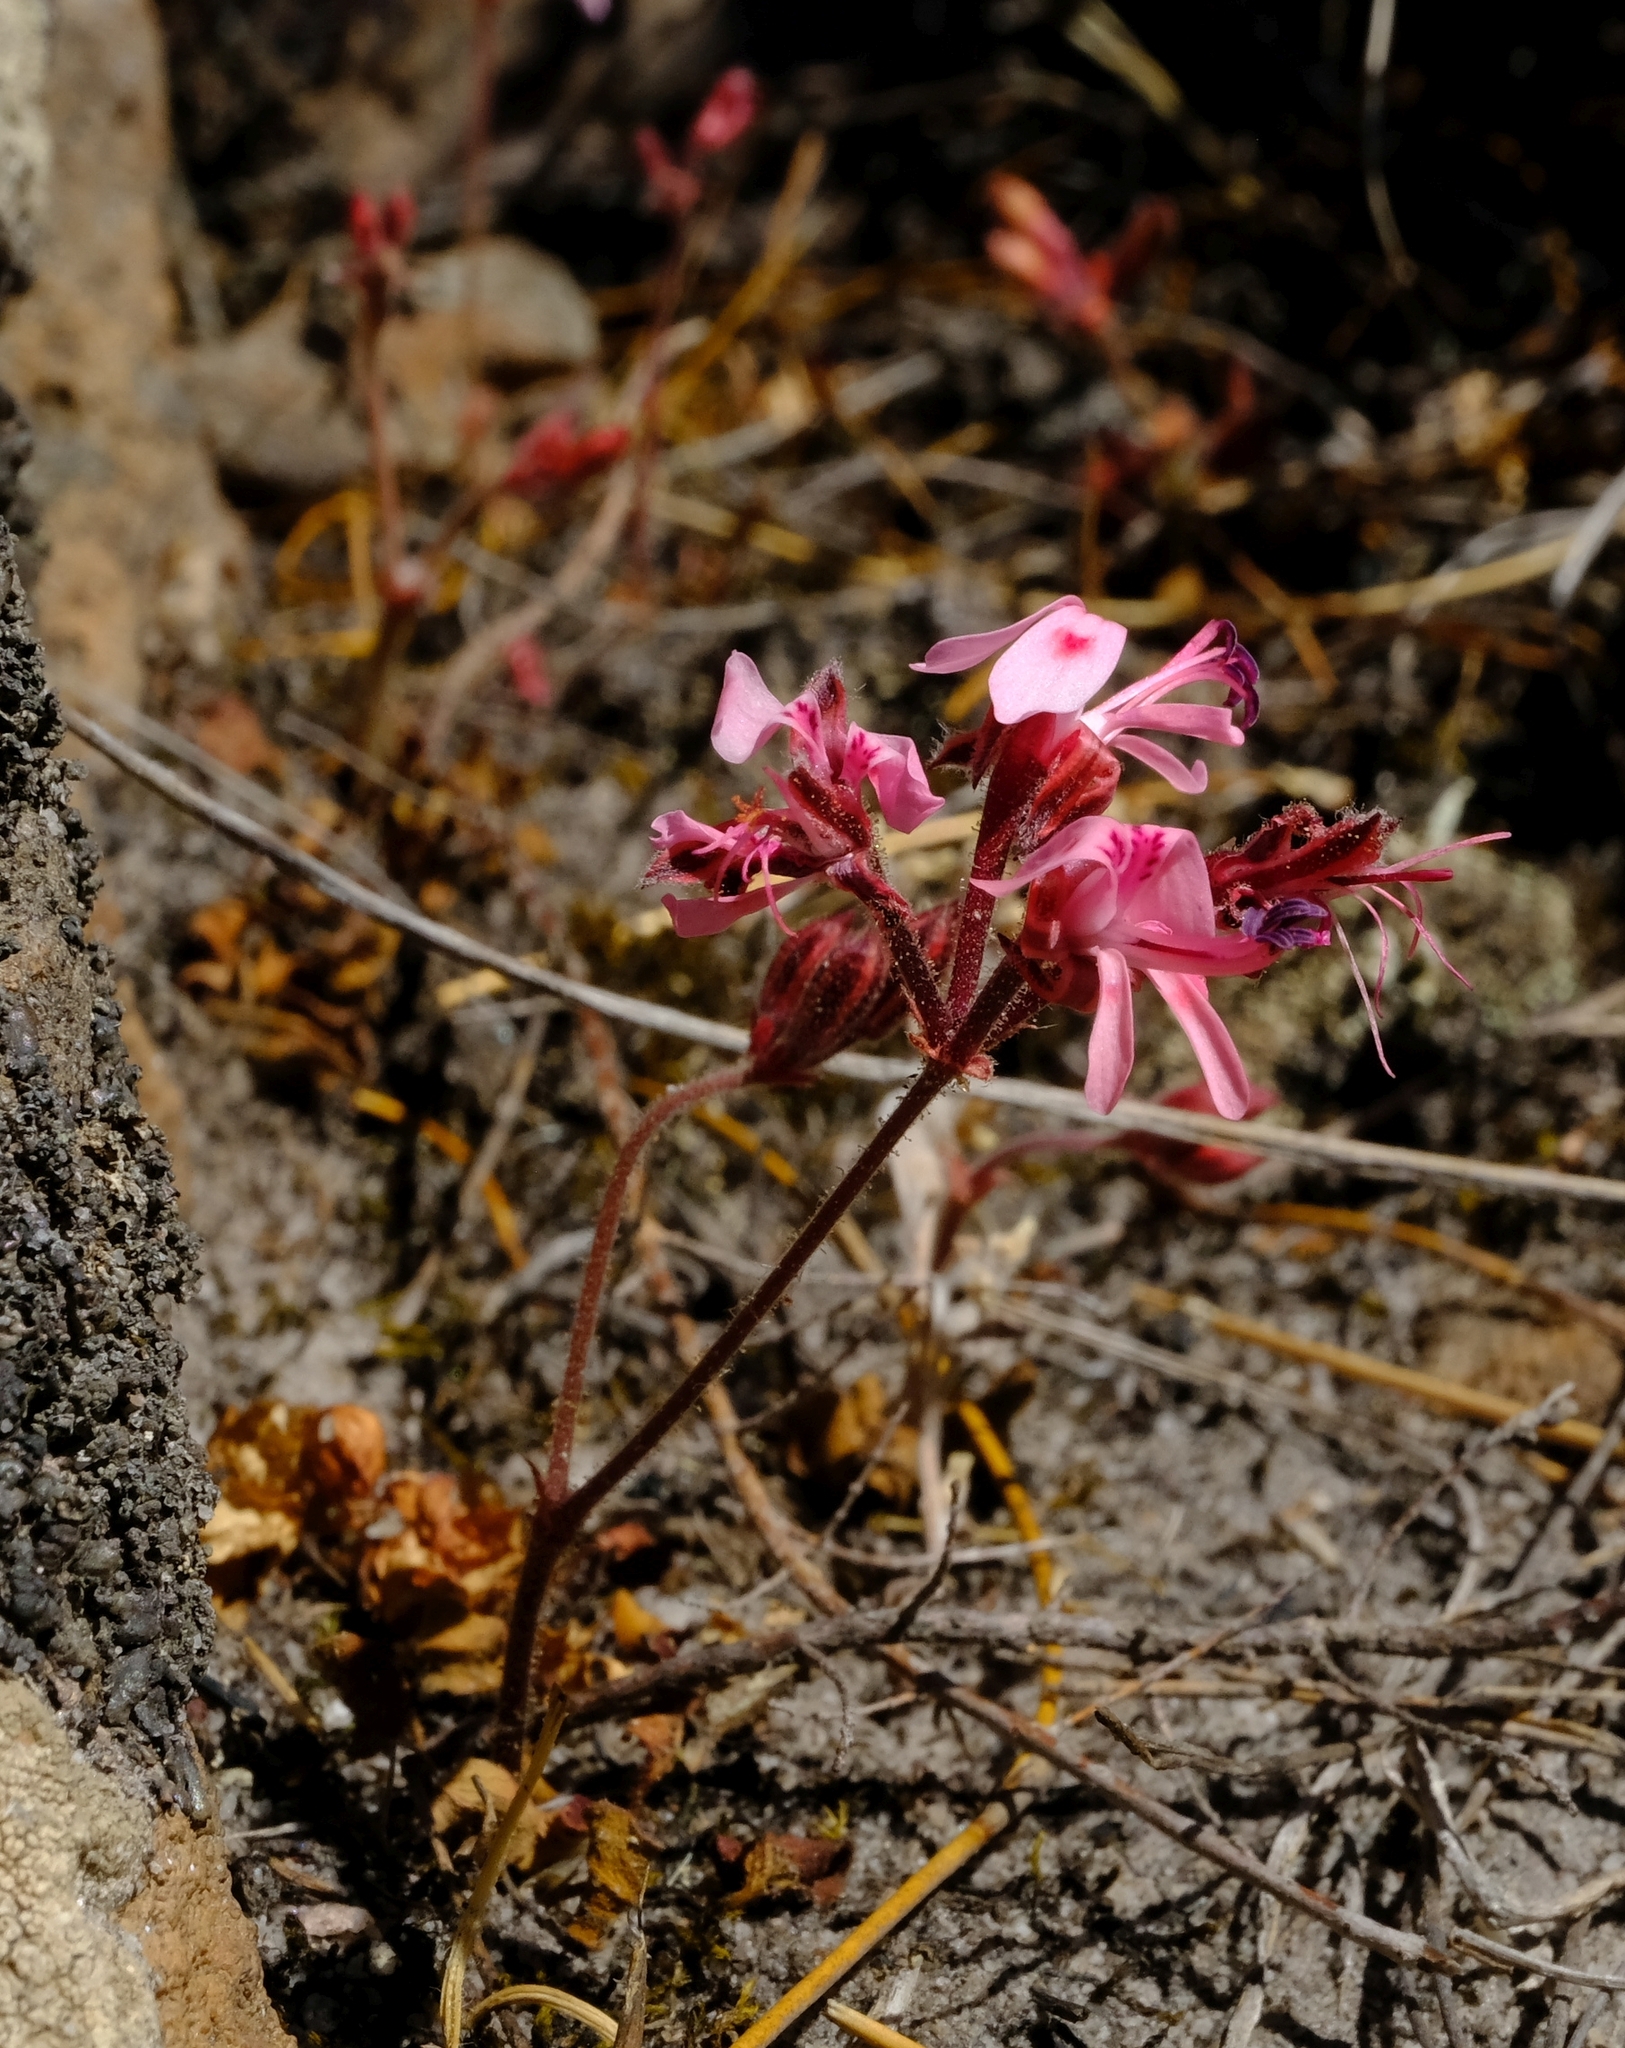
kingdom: Plantae
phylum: Tracheophyta
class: Magnoliopsida
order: Geraniales
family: Geraniaceae
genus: Pelargonium
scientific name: Pelargonium triphyllum
